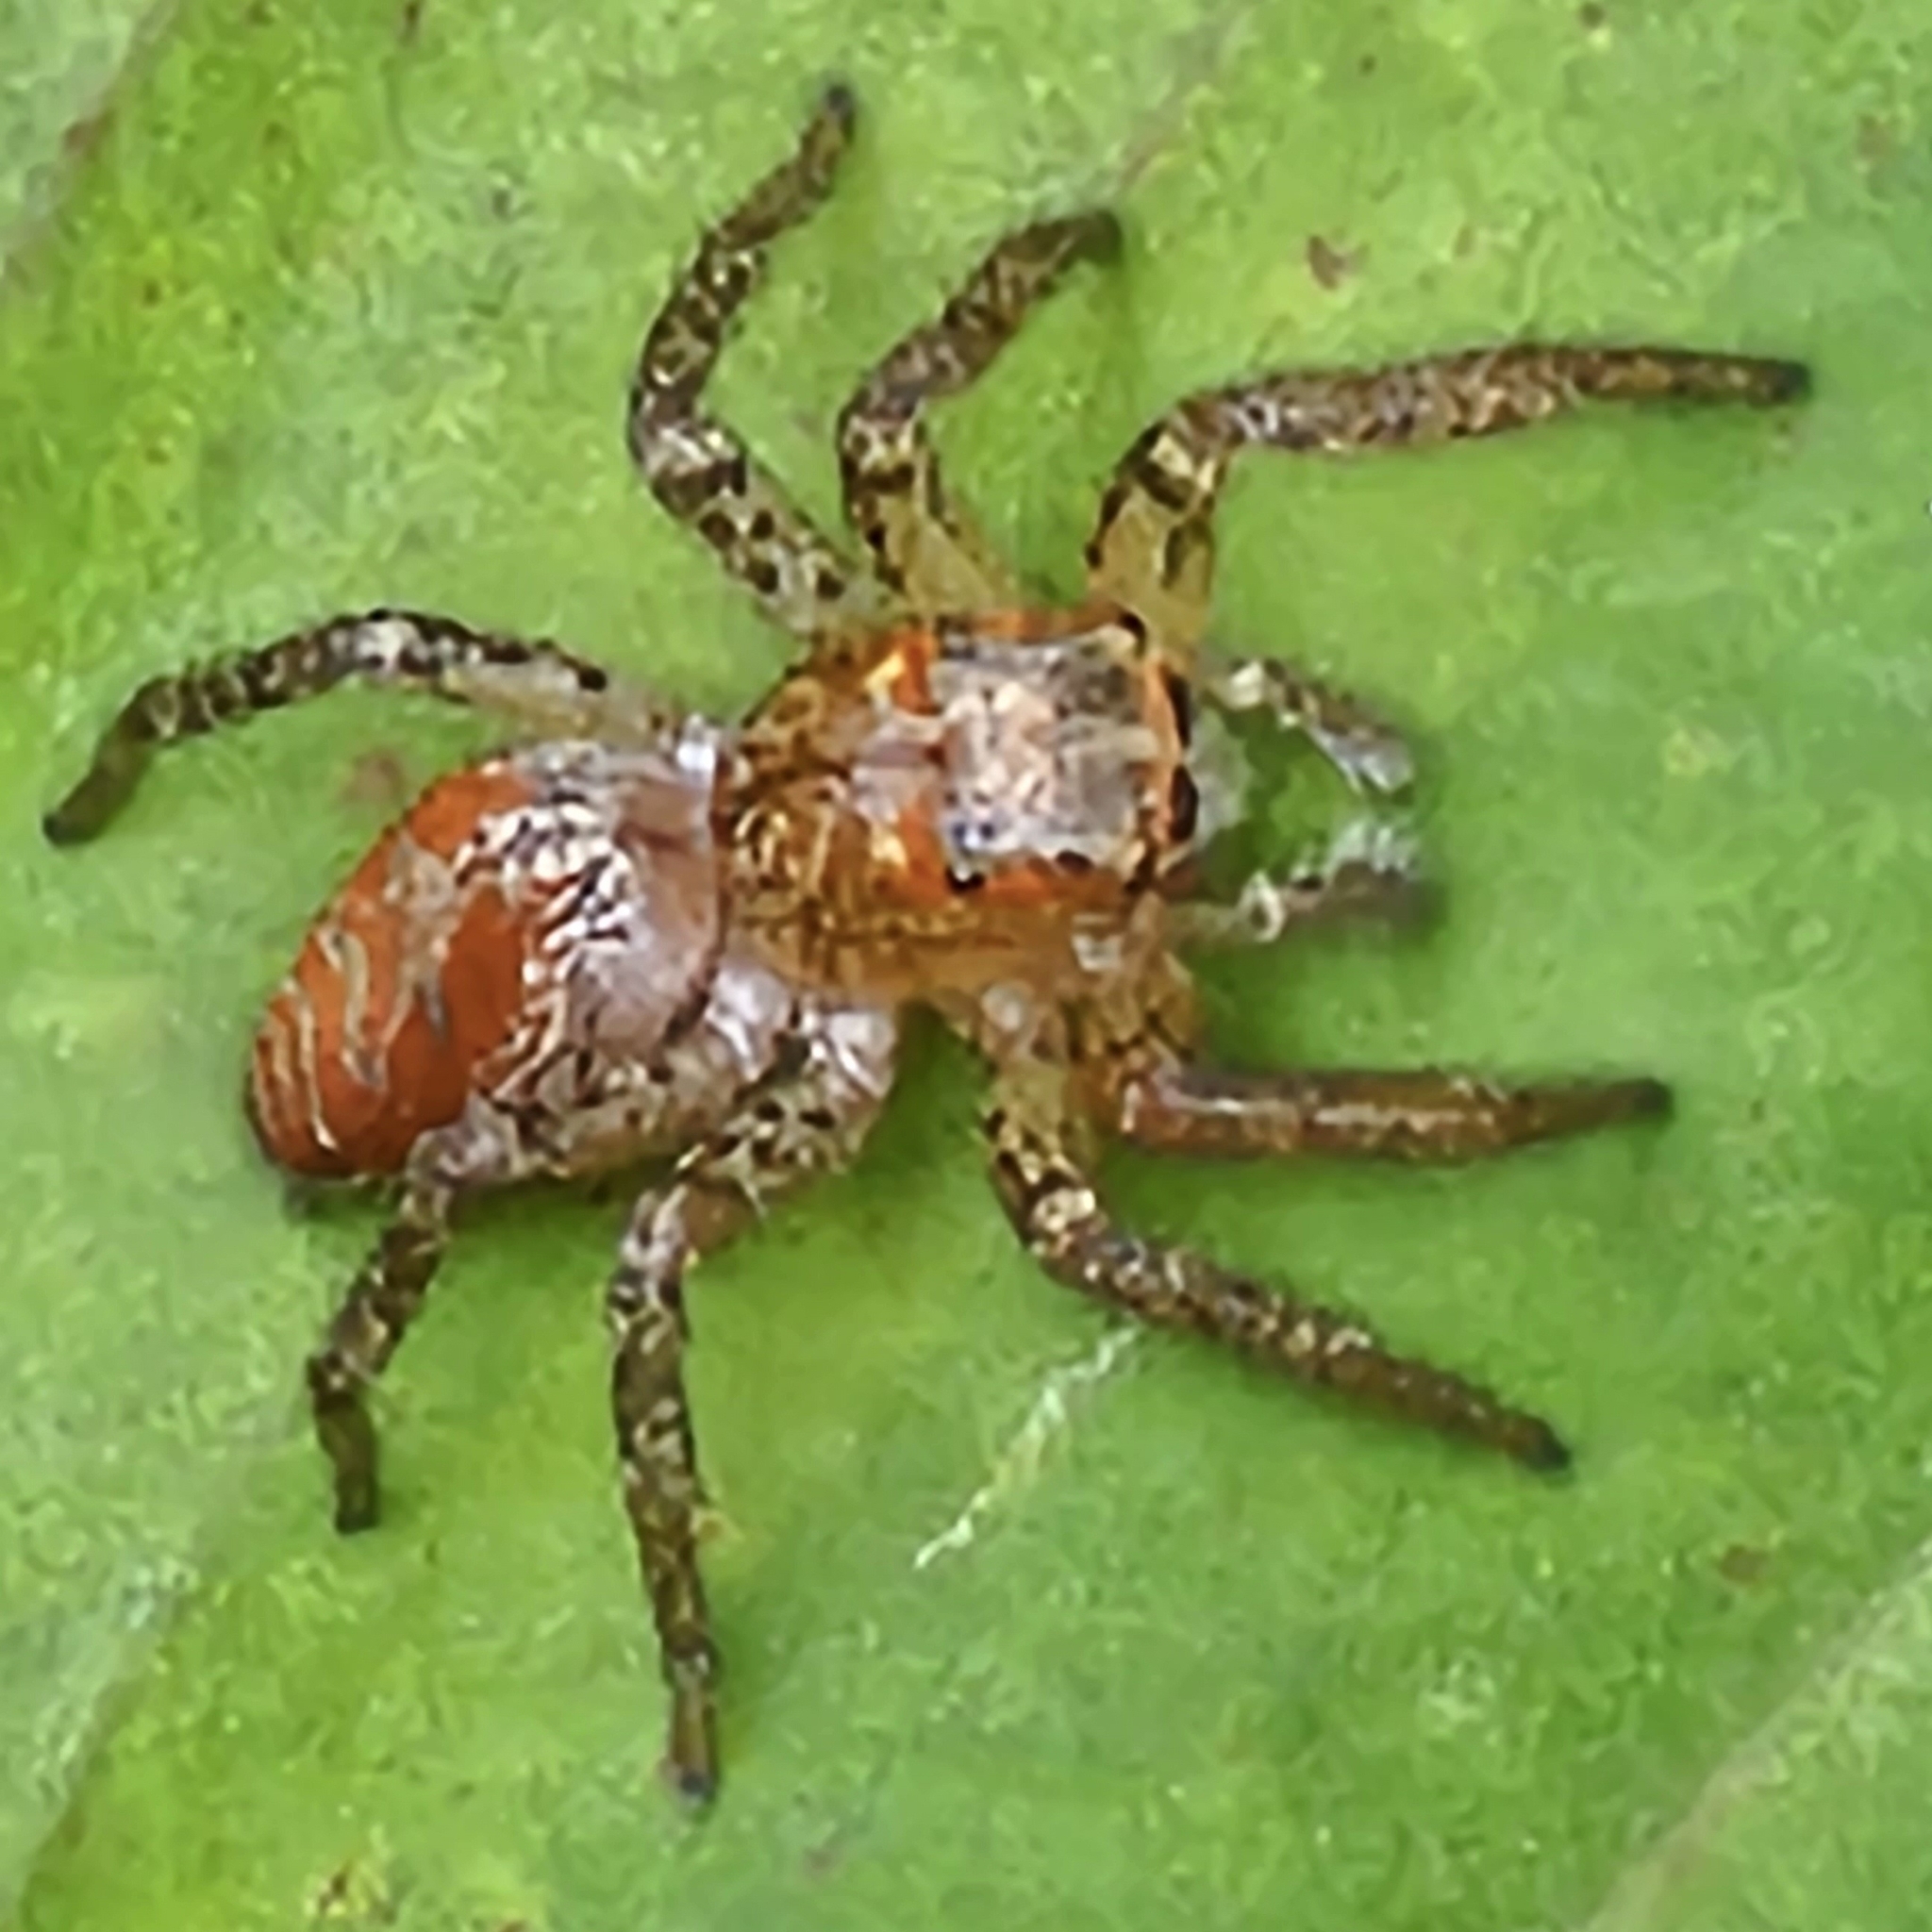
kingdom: Animalia
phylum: Arthropoda
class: Arachnida
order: Araneae
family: Salticidae
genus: Maevia
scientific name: Maevia inclemens
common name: Dimorphic jumper
